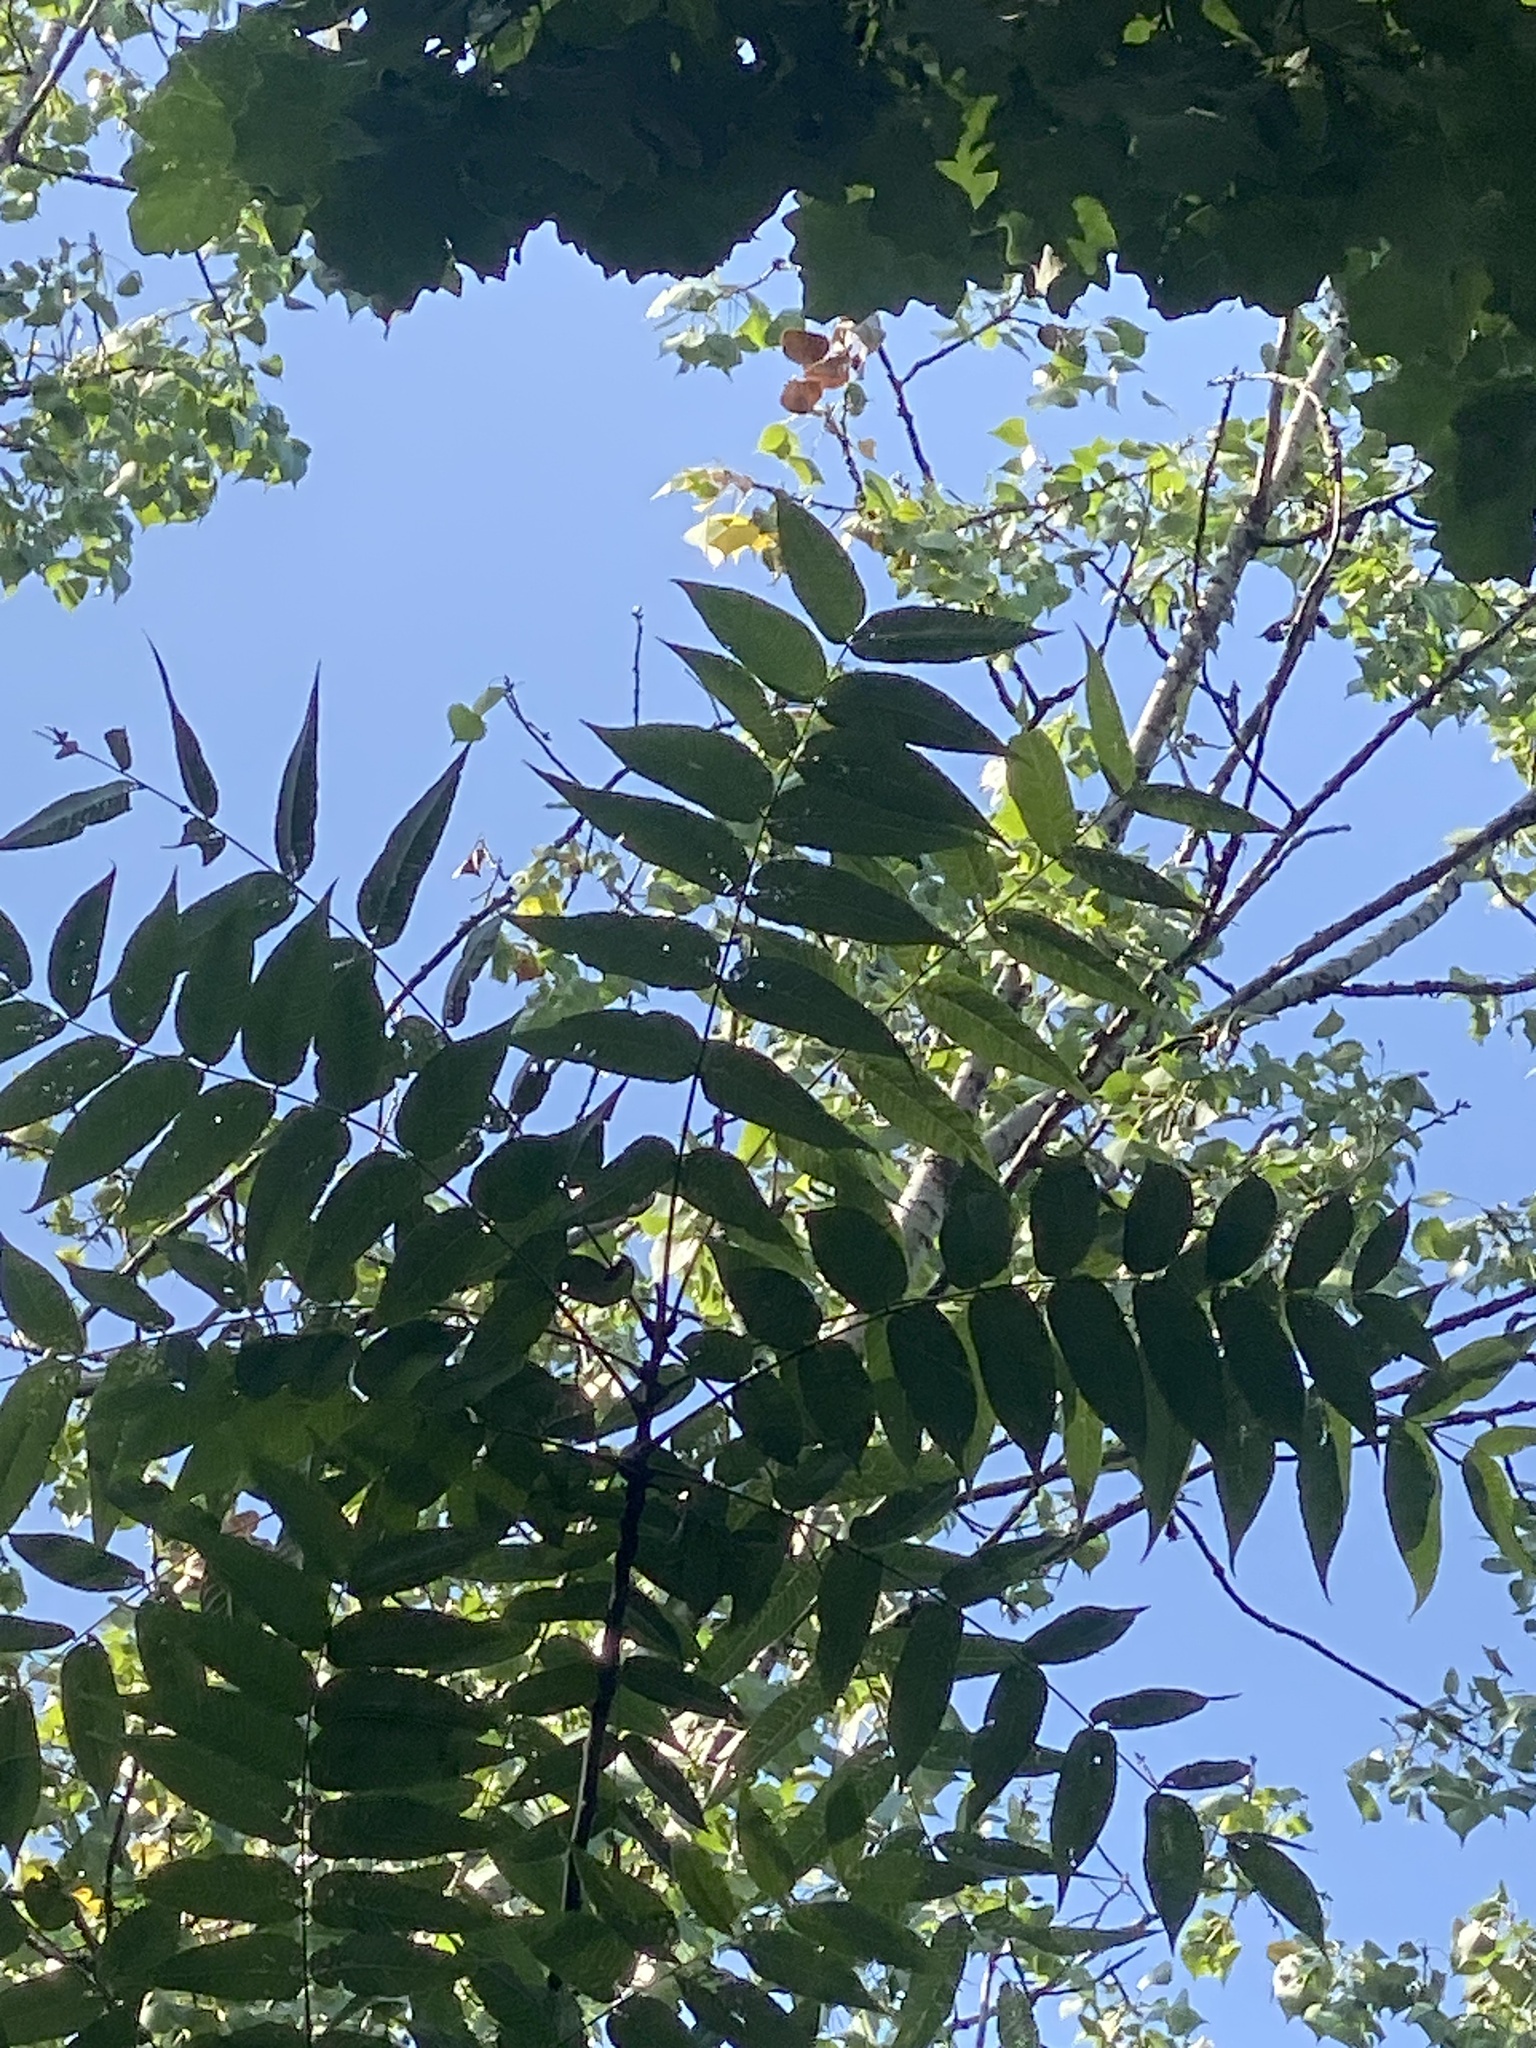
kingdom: Plantae
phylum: Tracheophyta
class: Magnoliopsida
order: Fagales
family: Juglandaceae
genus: Juglans
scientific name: Juglans nigra
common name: Black walnut
